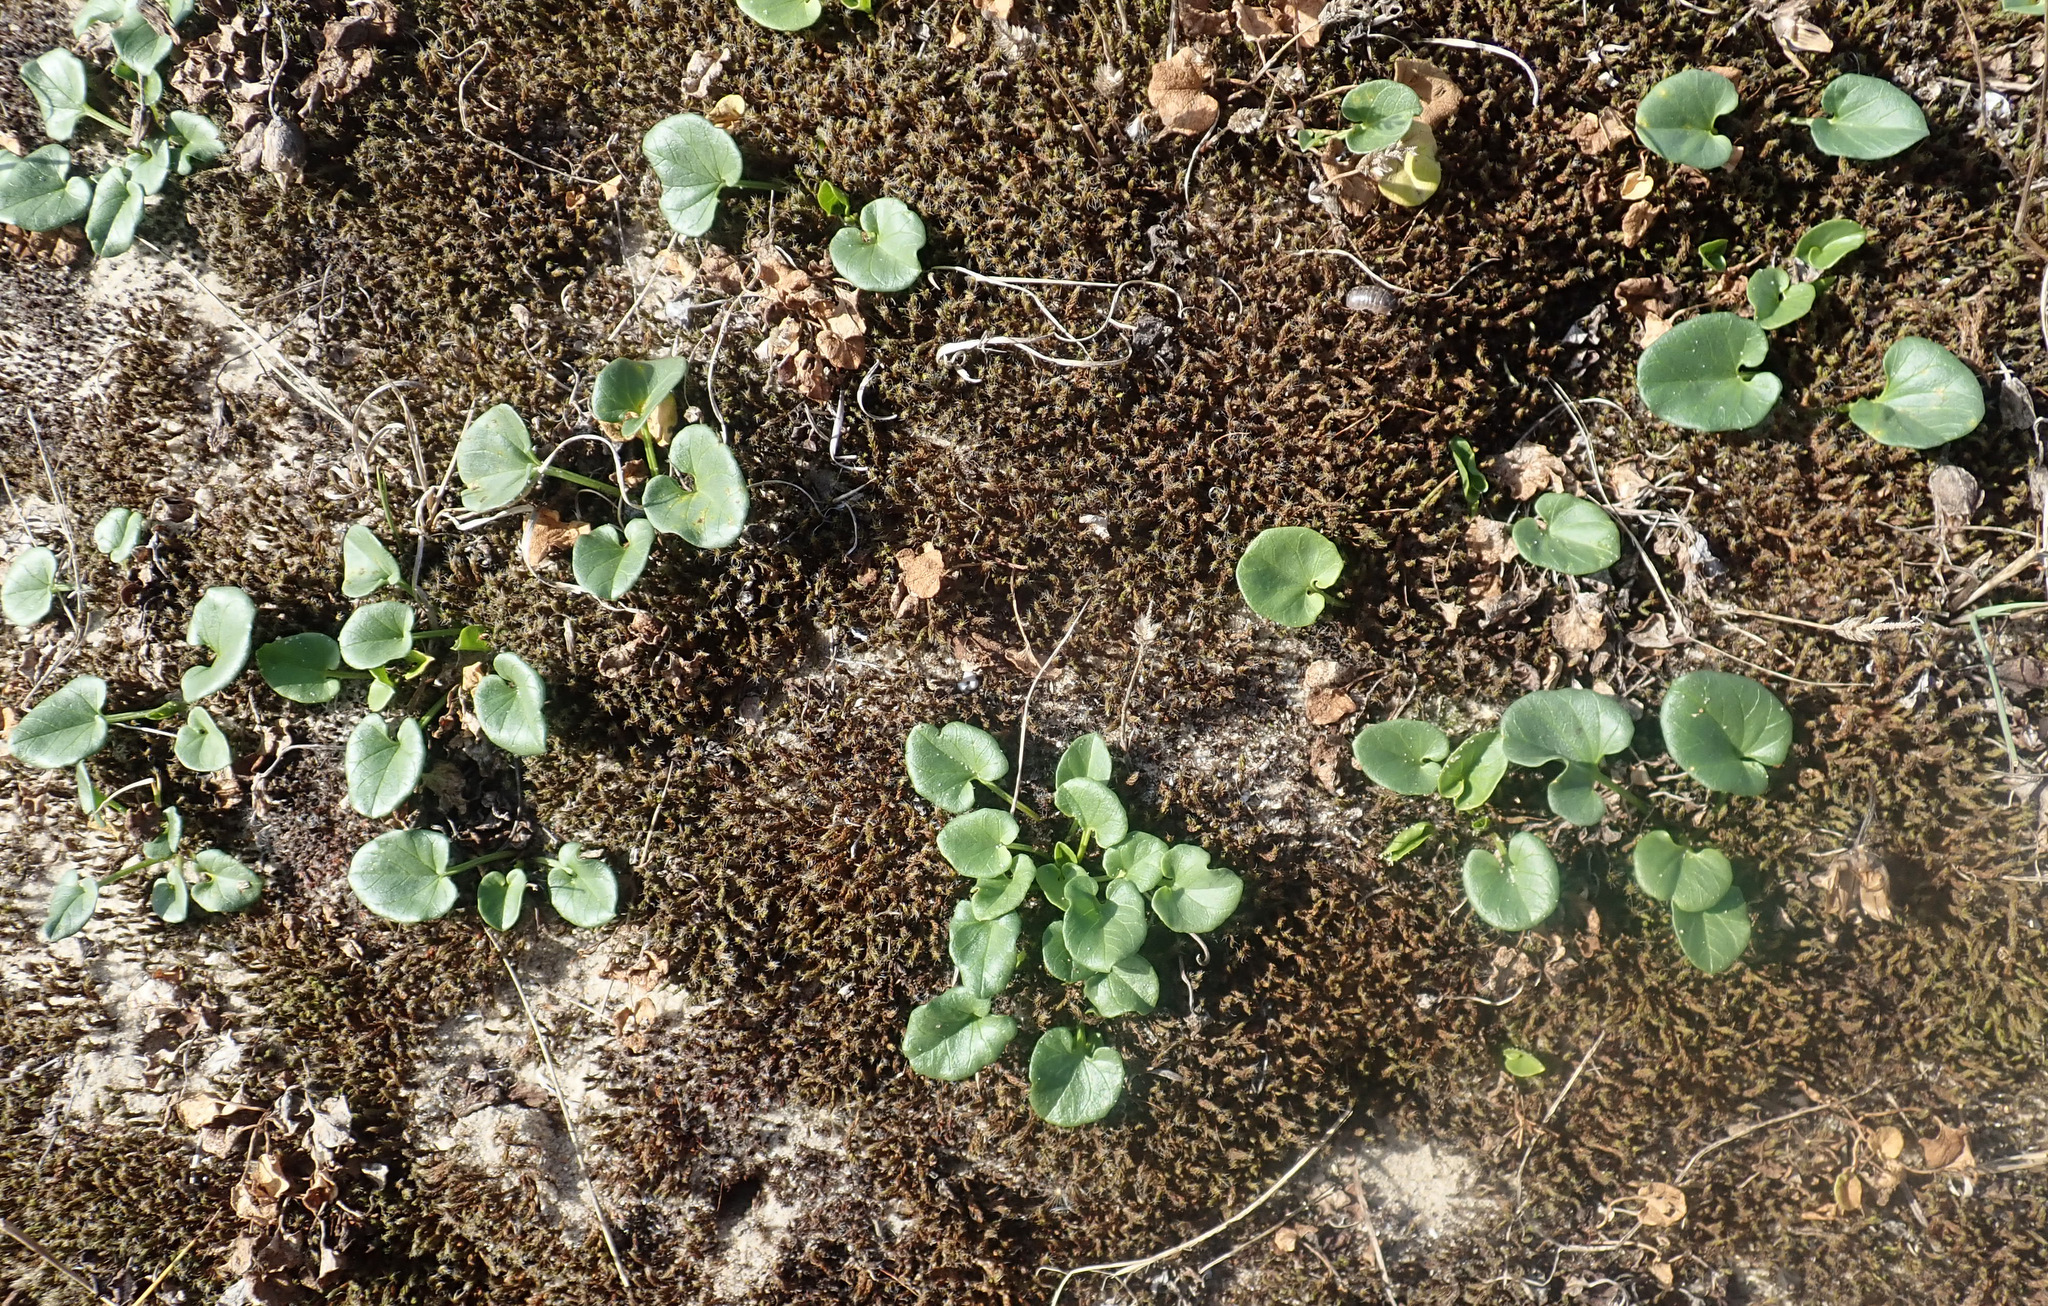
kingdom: Plantae
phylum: Tracheophyta
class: Magnoliopsida
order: Solanales
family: Convolvulaceae
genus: Calystegia
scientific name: Calystegia soldanella
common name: Sea bindweed
